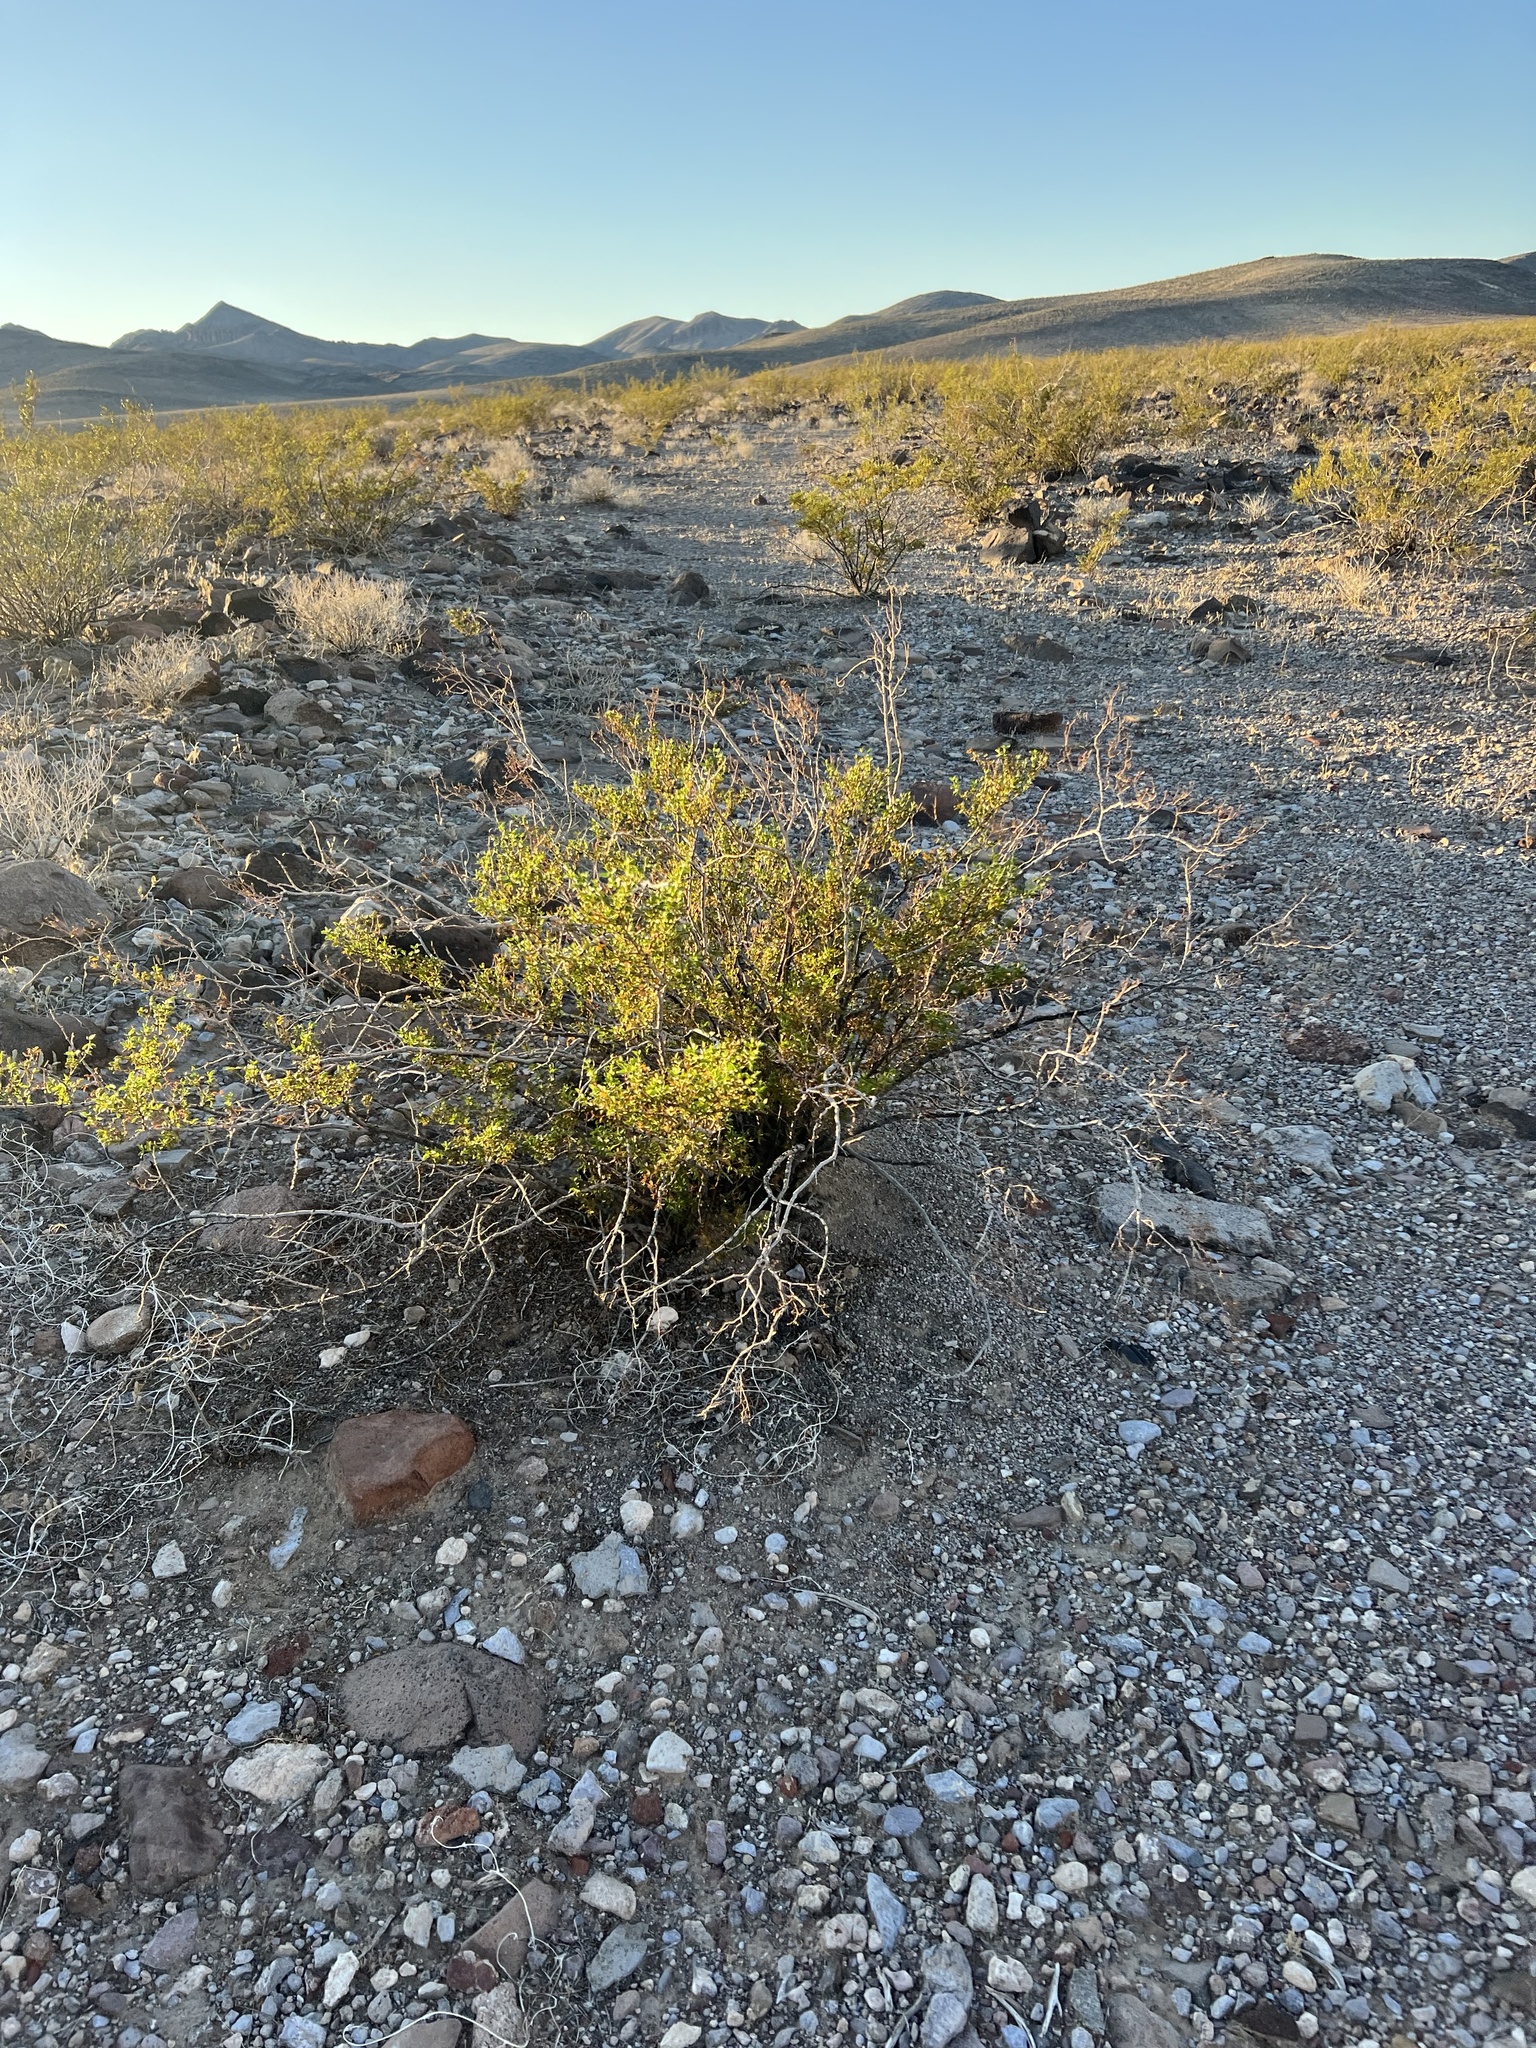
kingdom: Plantae
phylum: Tracheophyta
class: Magnoliopsida
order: Zygophyllales
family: Zygophyllaceae
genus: Larrea
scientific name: Larrea tridentata
